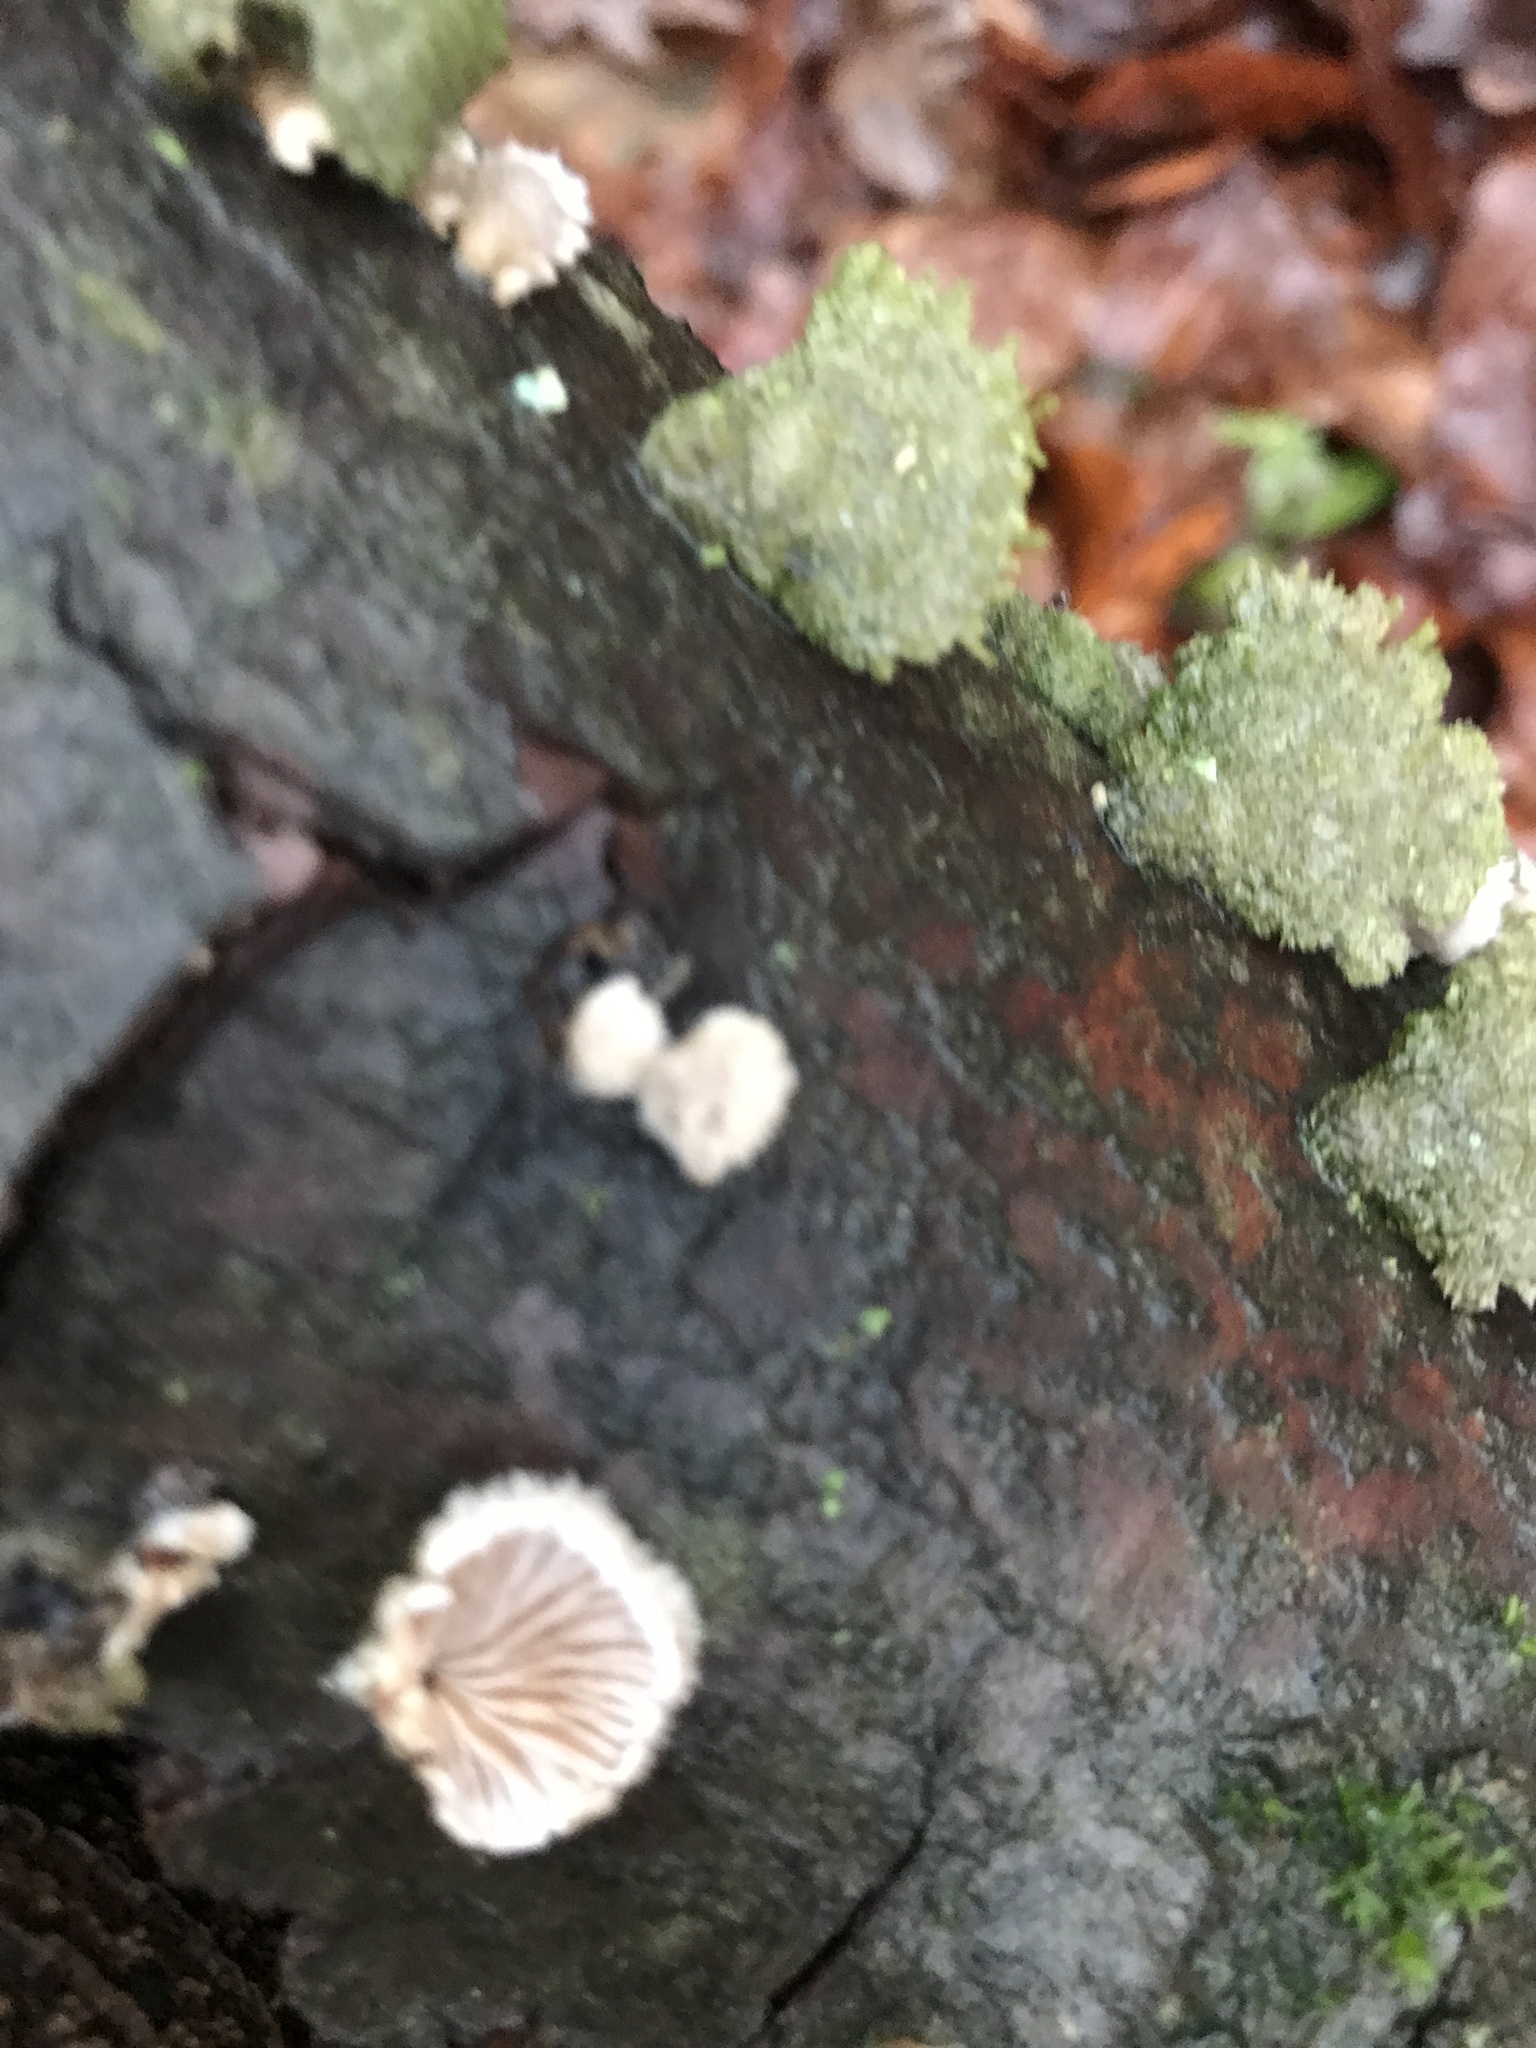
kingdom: Fungi
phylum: Basidiomycota
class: Agaricomycetes
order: Agaricales
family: Schizophyllaceae
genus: Schizophyllum
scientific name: Schizophyllum commune
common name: Common porecrust
